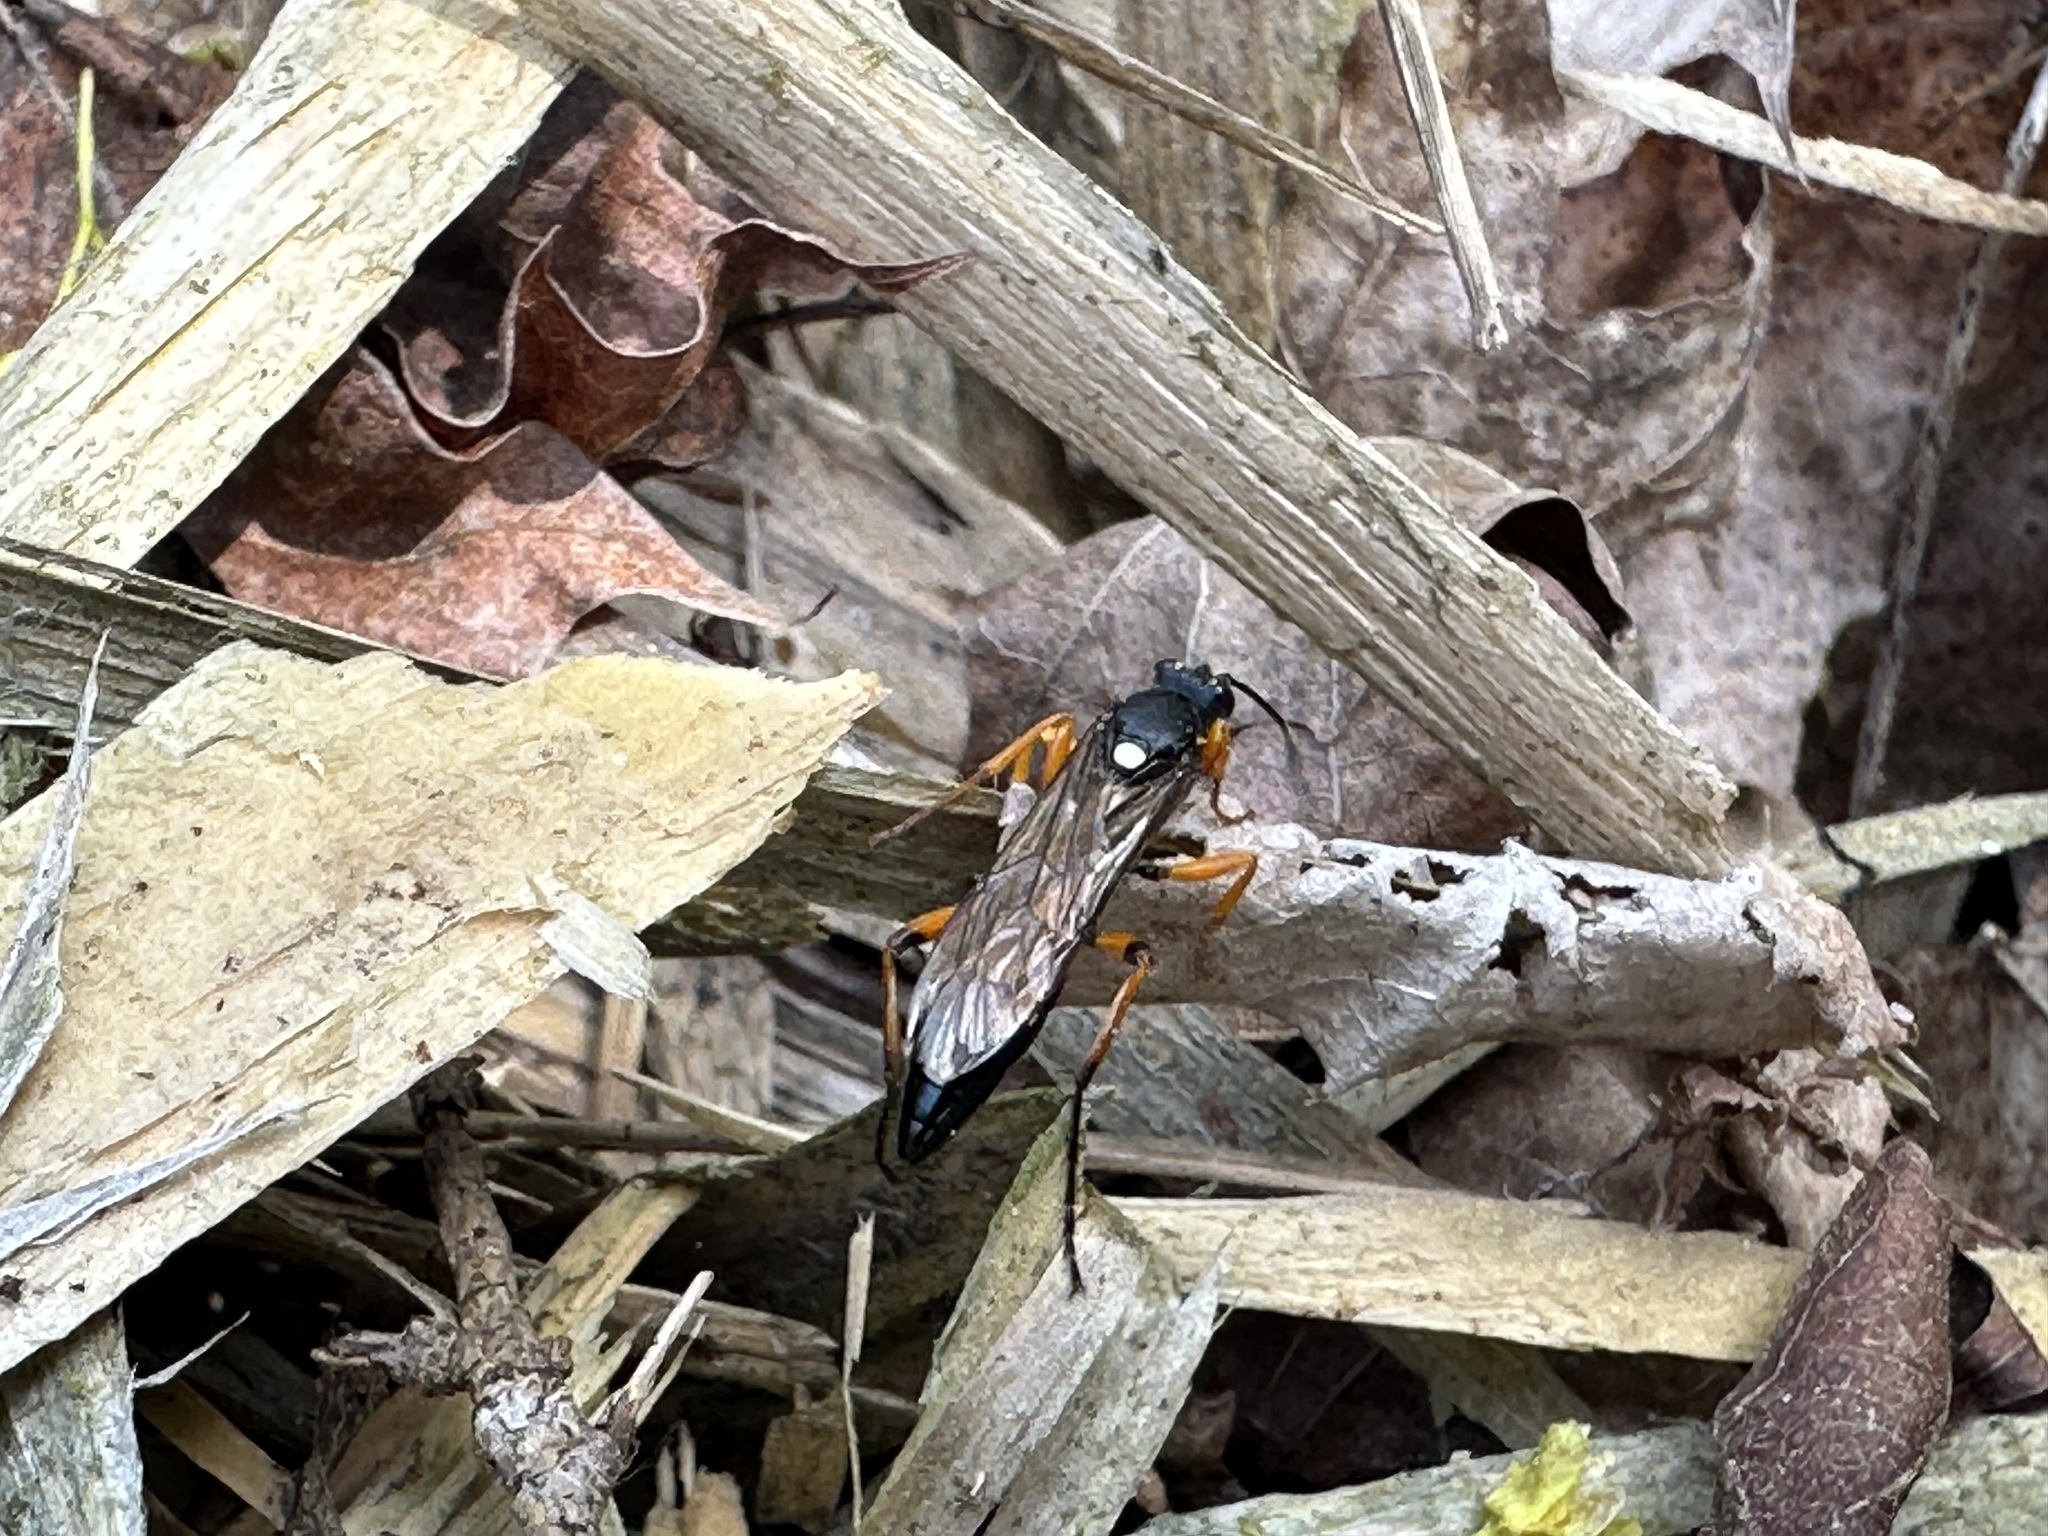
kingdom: Animalia
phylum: Arthropoda
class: Insecta
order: Hymenoptera
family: Ichneumonidae
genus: Diphyus
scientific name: Diphyus quadripunctorius
